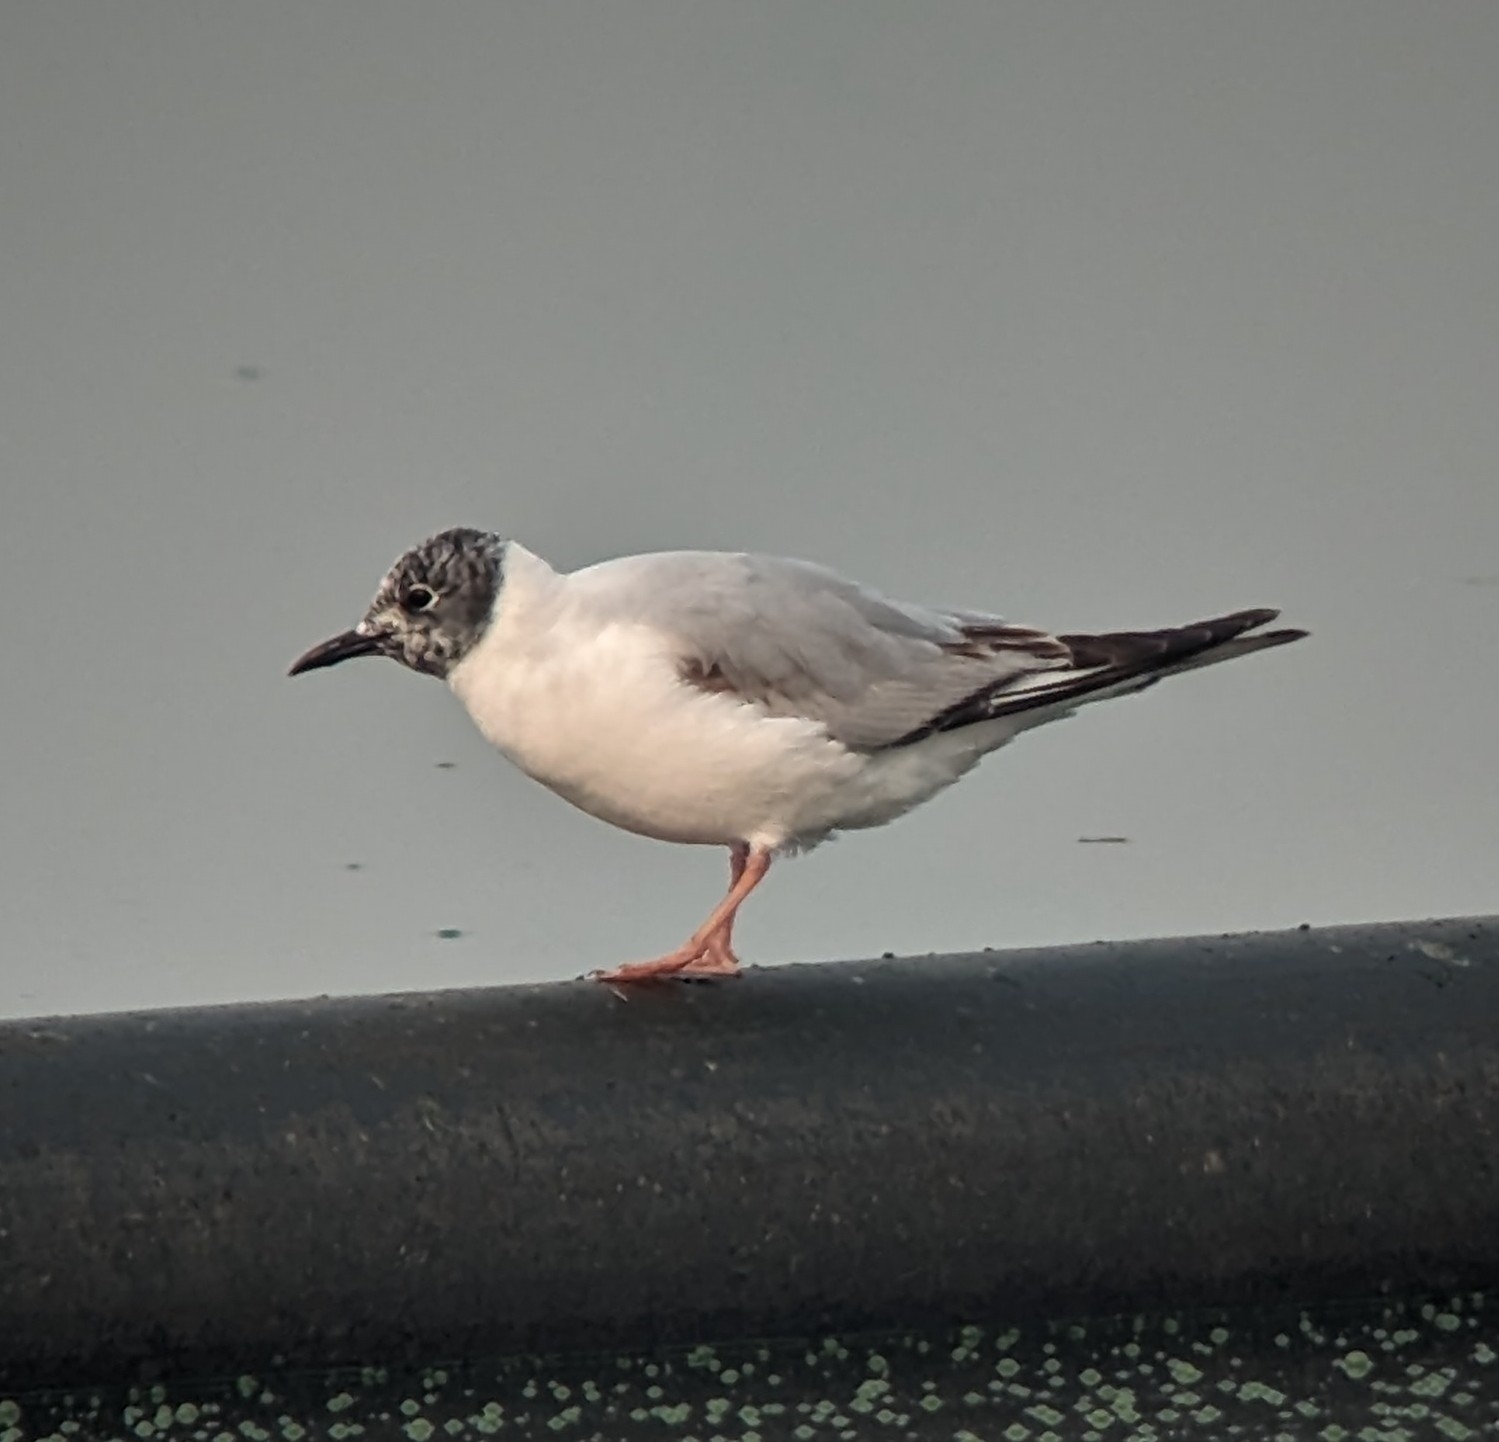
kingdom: Animalia
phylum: Chordata
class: Aves
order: Charadriiformes
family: Laridae
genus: Chroicocephalus
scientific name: Chroicocephalus philadelphia
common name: Bonaparte's gull
